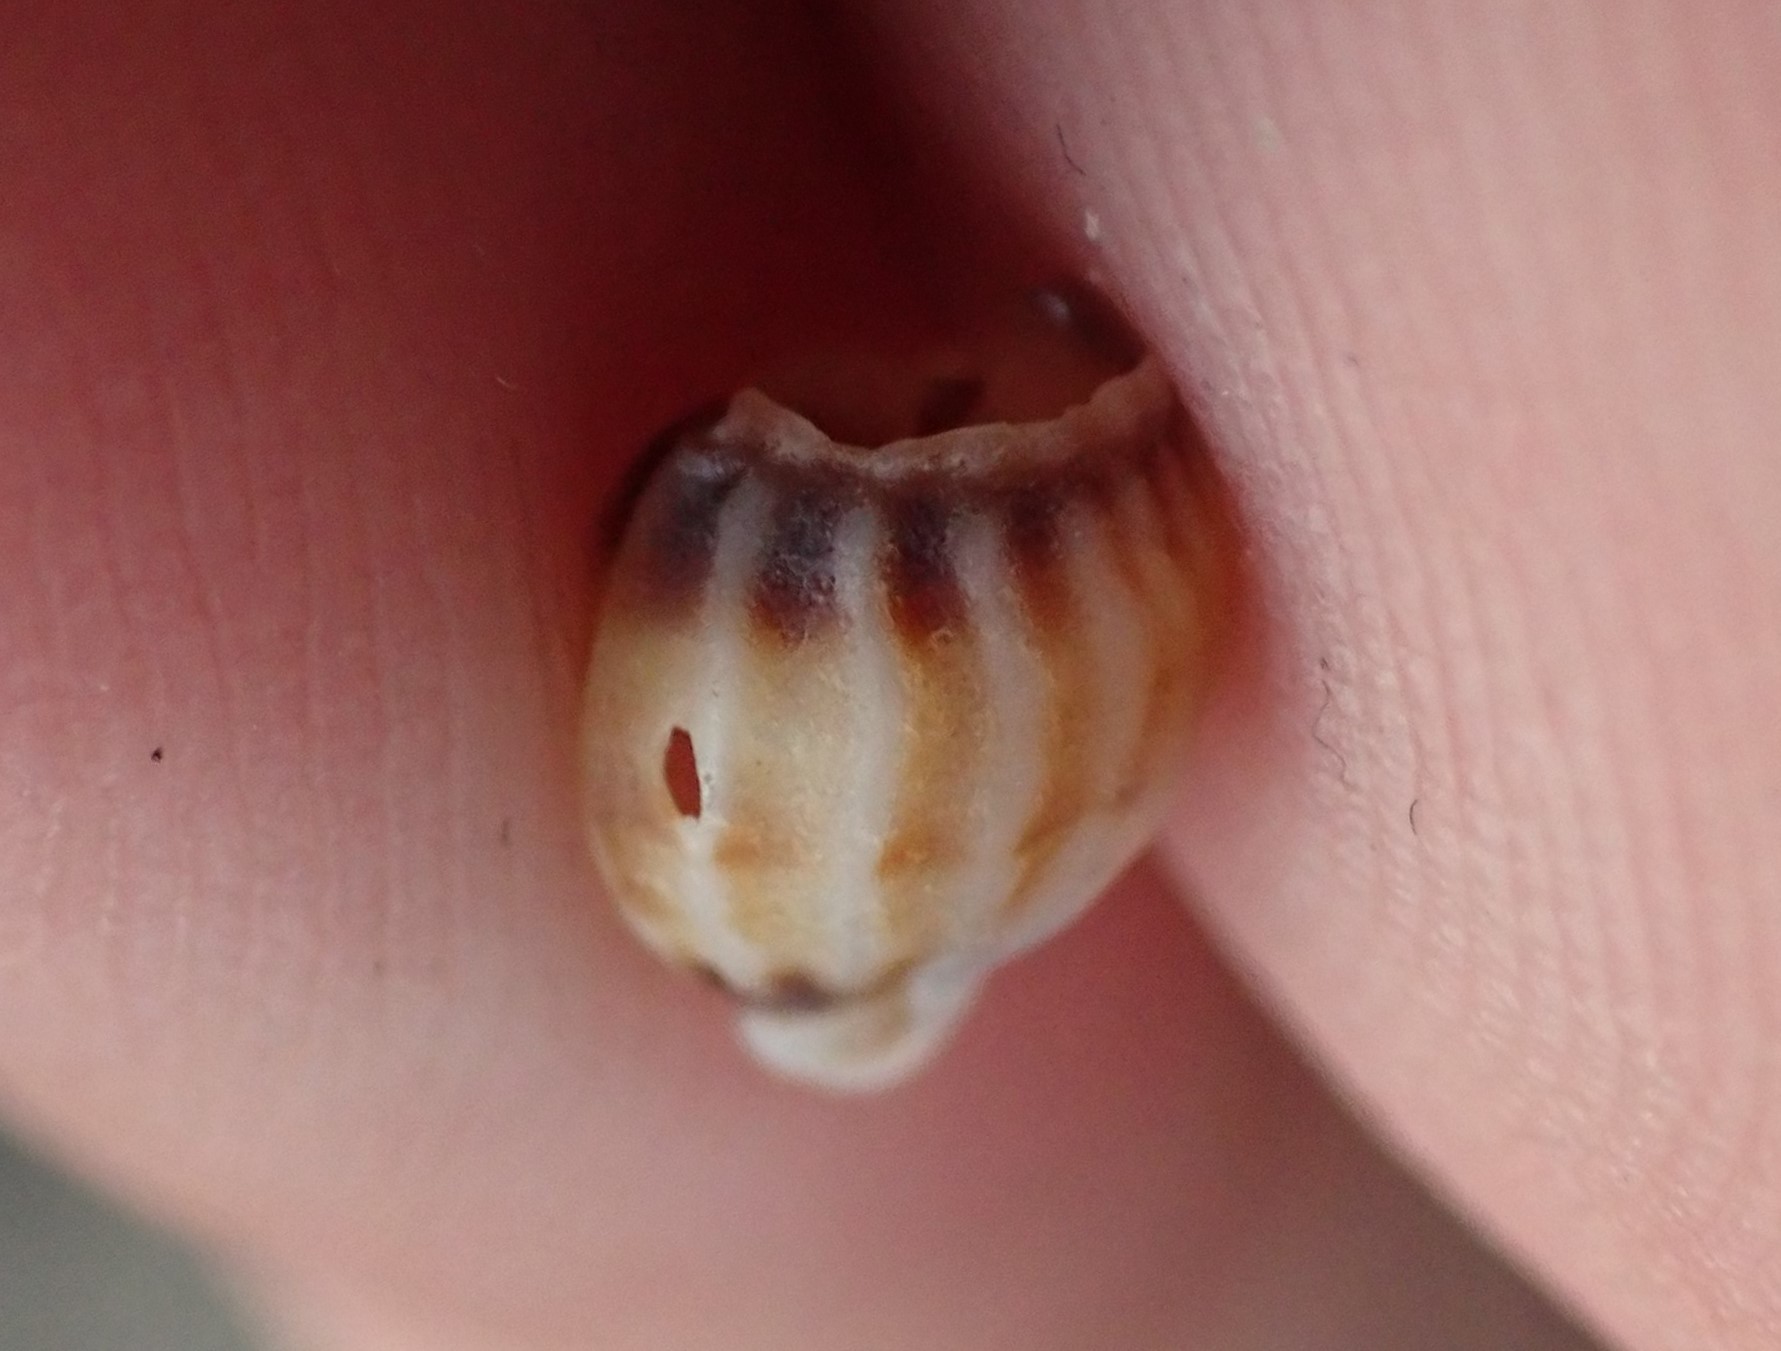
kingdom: Animalia
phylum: Mollusca
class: Gastropoda
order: Neogastropoda
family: Nassariidae
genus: Tritia
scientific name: Tritia burchardi
